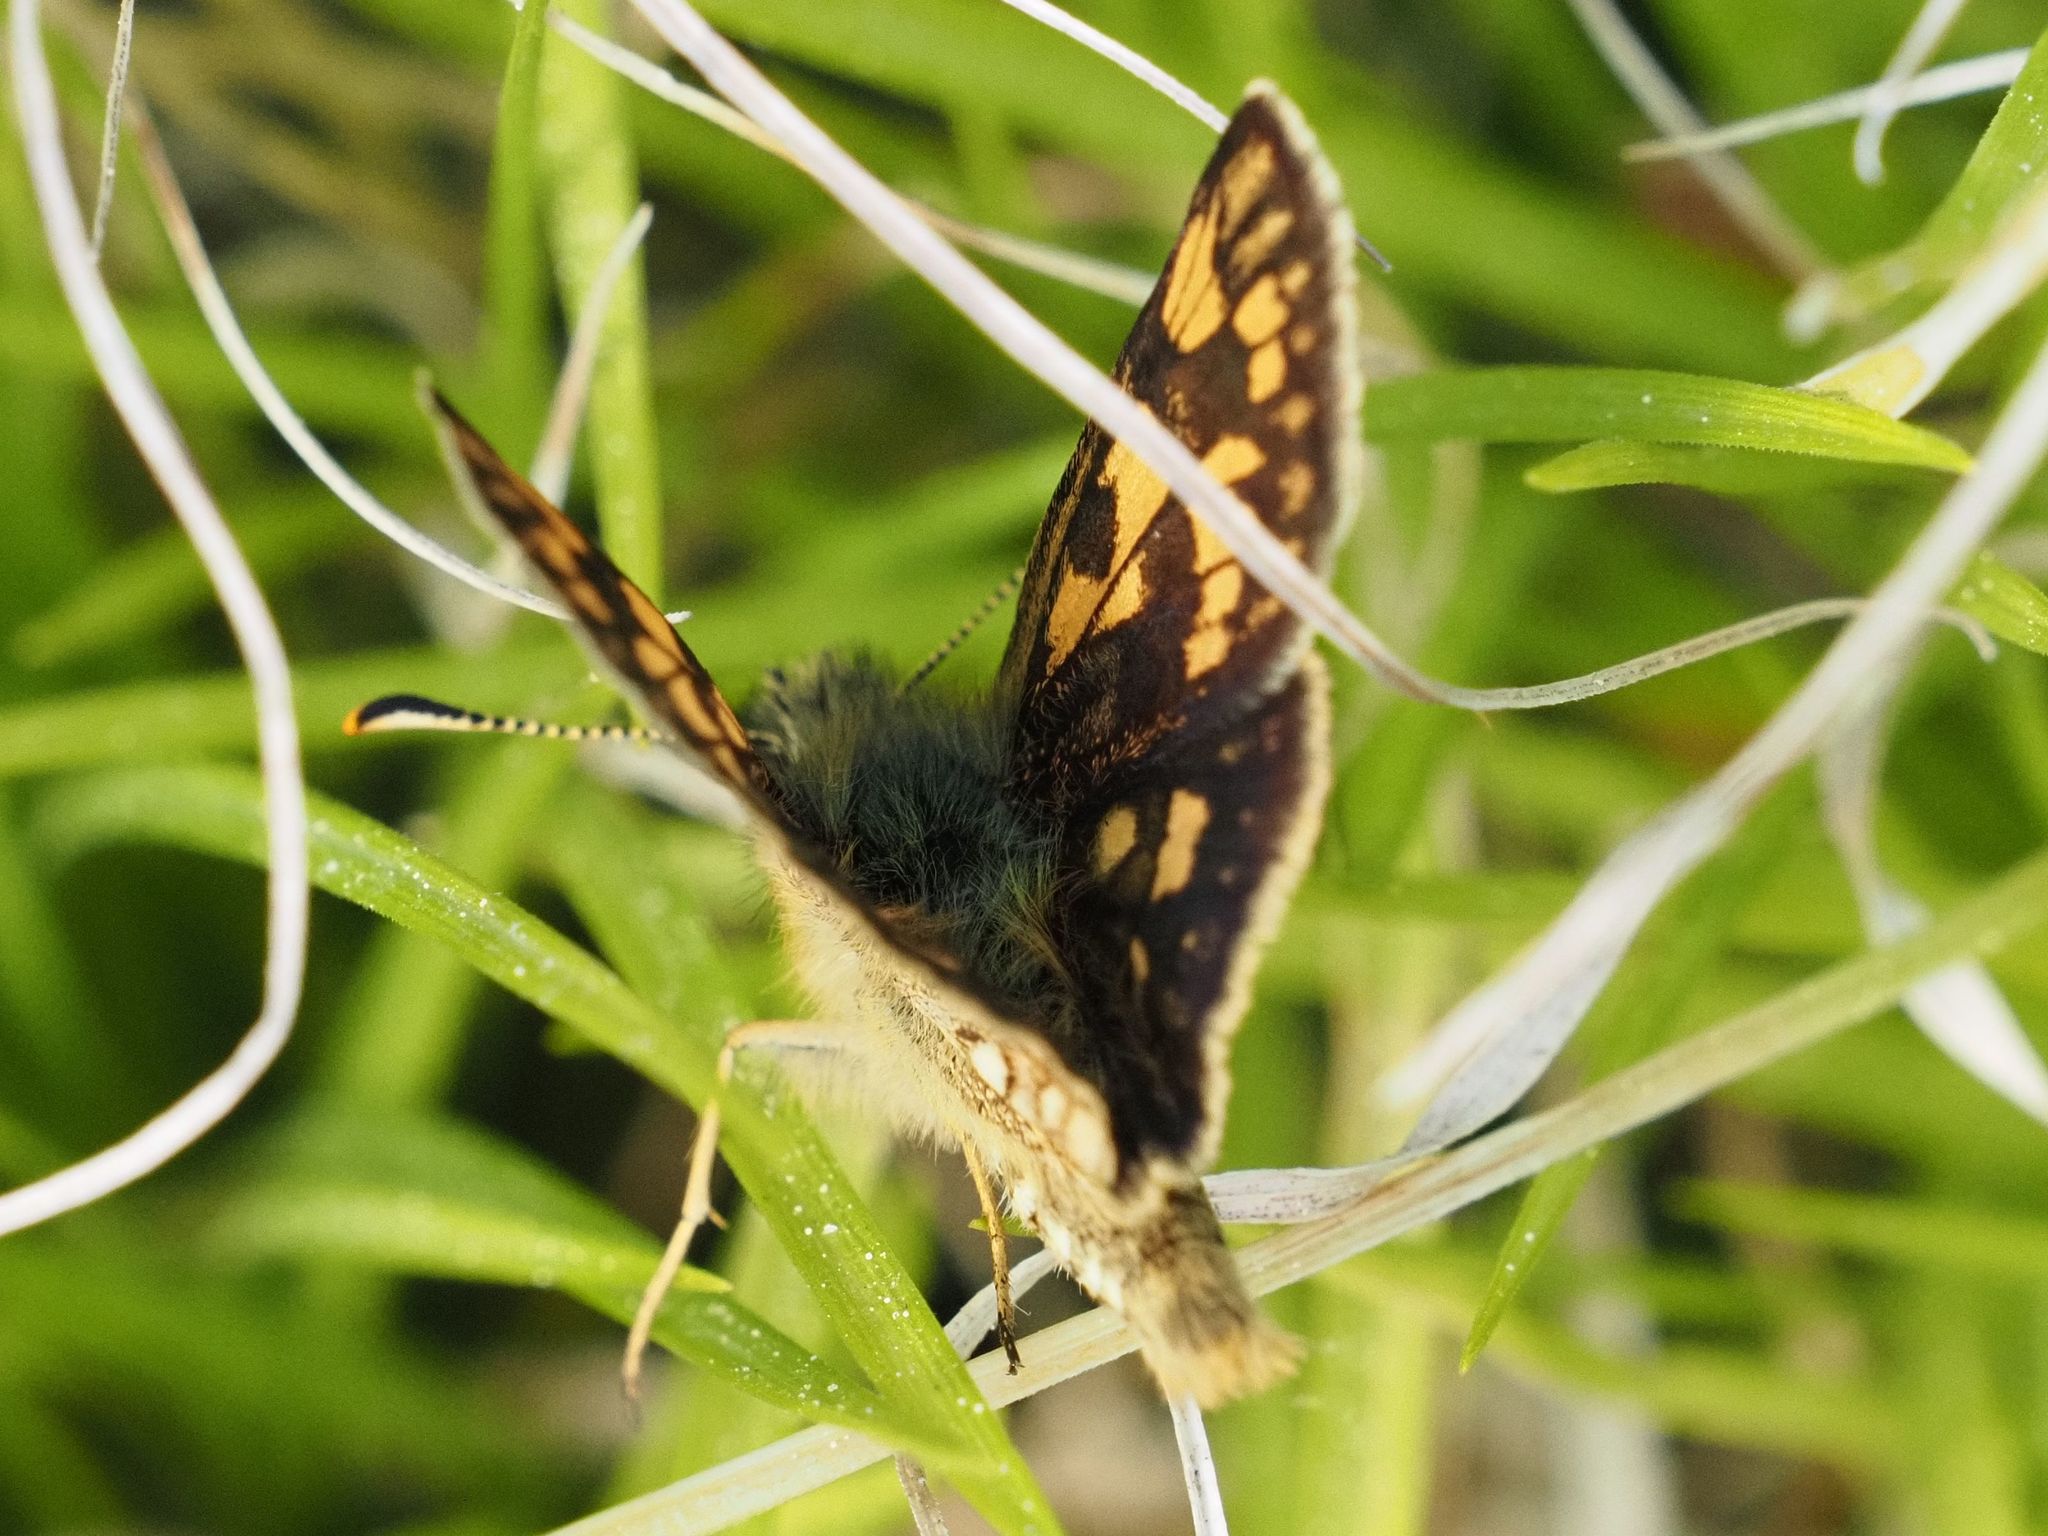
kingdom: Animalia
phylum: Arthropoda
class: Insecta
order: Lepidoptera
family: Hesperiidae
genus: Carterocephalus
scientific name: Carterocephalus palaemon
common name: Chequered skipper
